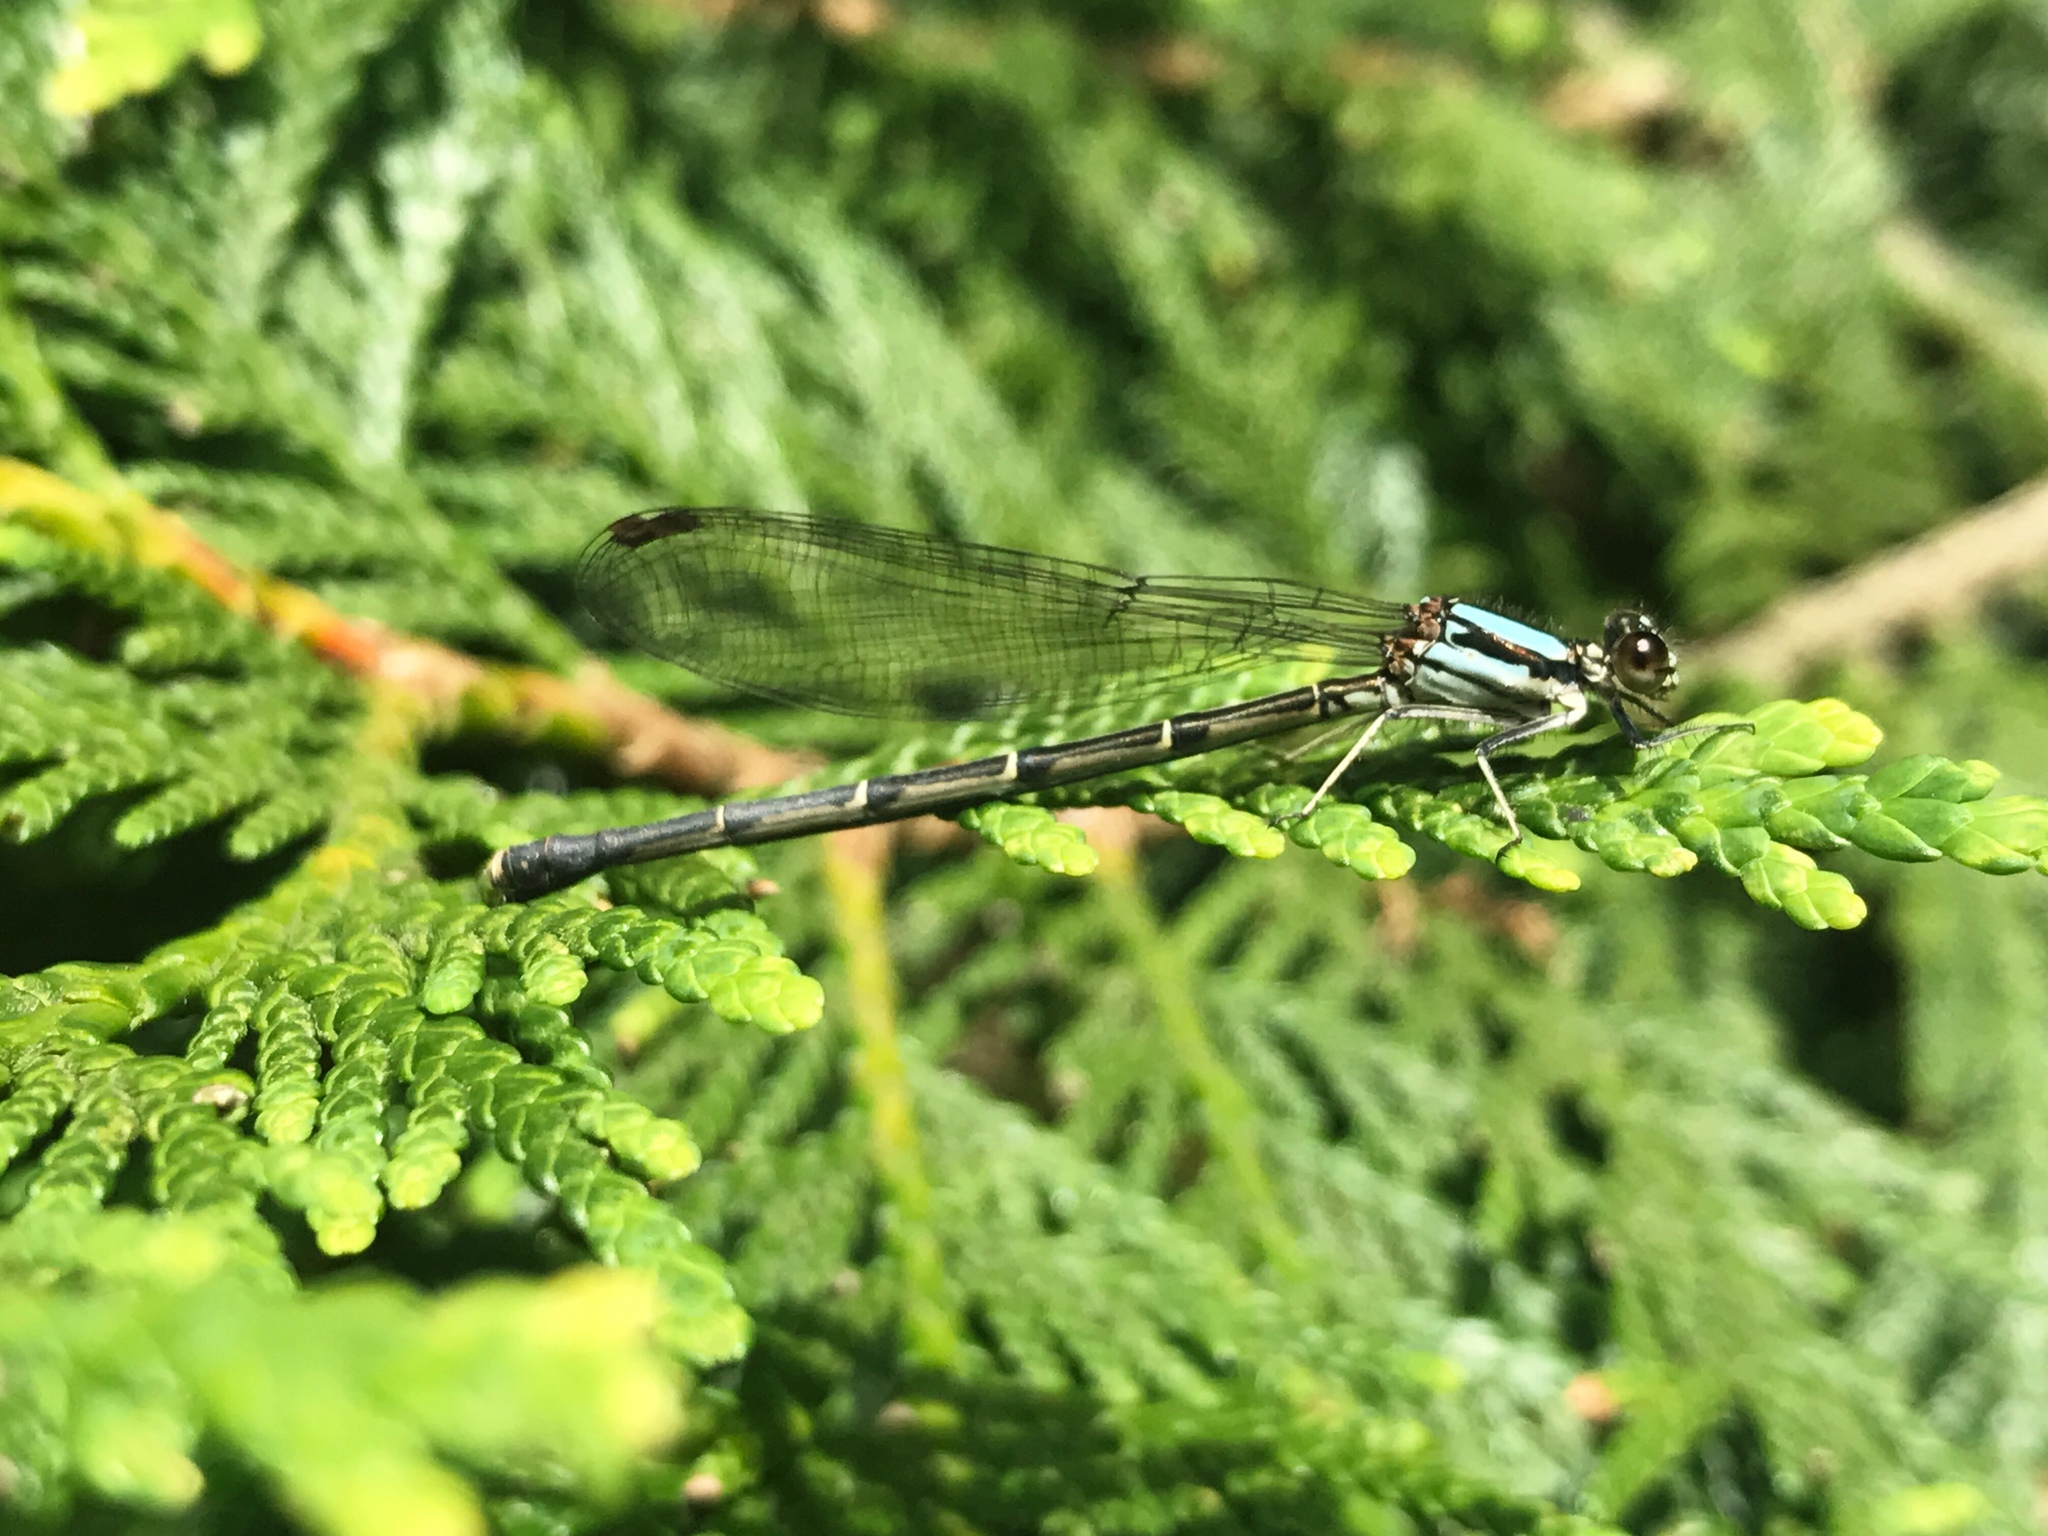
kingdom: Animalia
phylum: Arthropoda
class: Insecta
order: Odonata
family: Coenagrionidae
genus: Argia
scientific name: Argia tibialis
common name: Blue-tipped dancer
